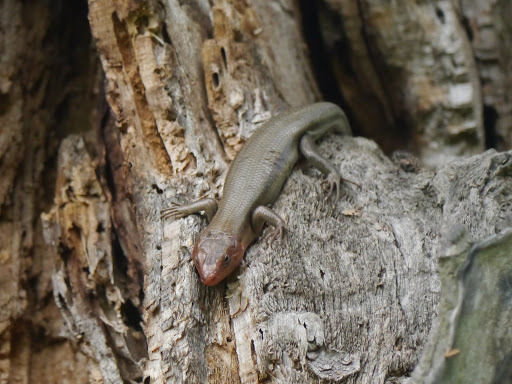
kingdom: Animalia
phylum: Chordata
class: Squamata
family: Scincidae
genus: Plestiodon
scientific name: Plestiodon fasciatus
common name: Five-lined skink
